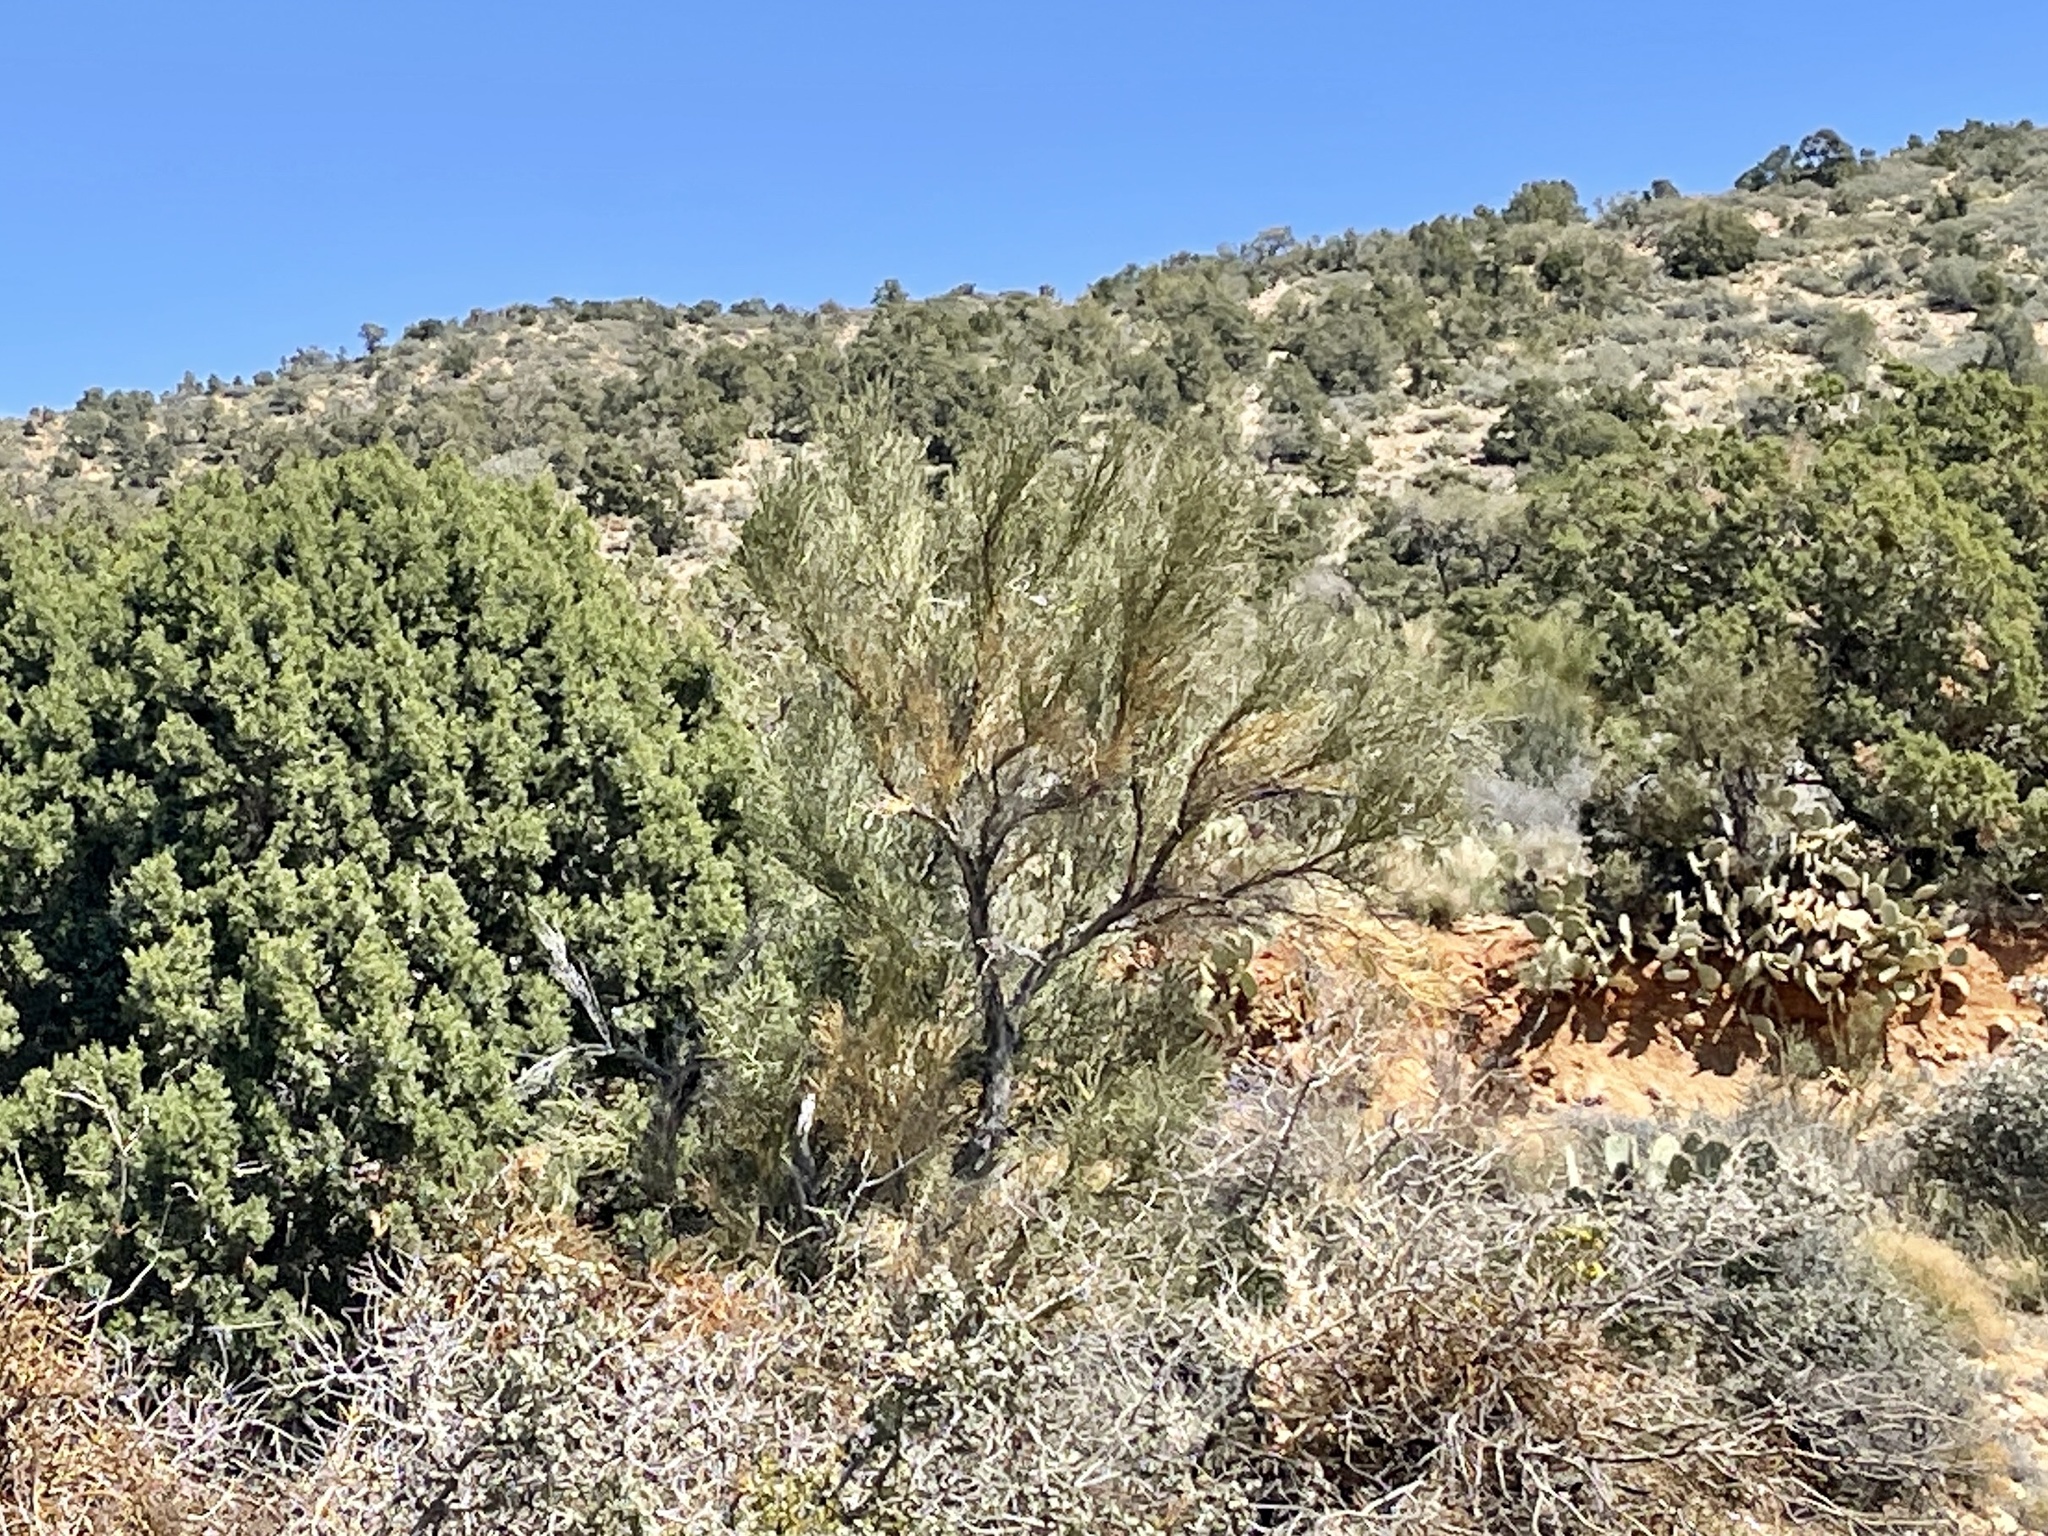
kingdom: Plantae
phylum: Tracheophyta
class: Magnoliopsida
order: Celastrales
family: Celastraceae
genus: Canotia
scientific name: Canotia holacantha
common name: Crucifixion thorns
